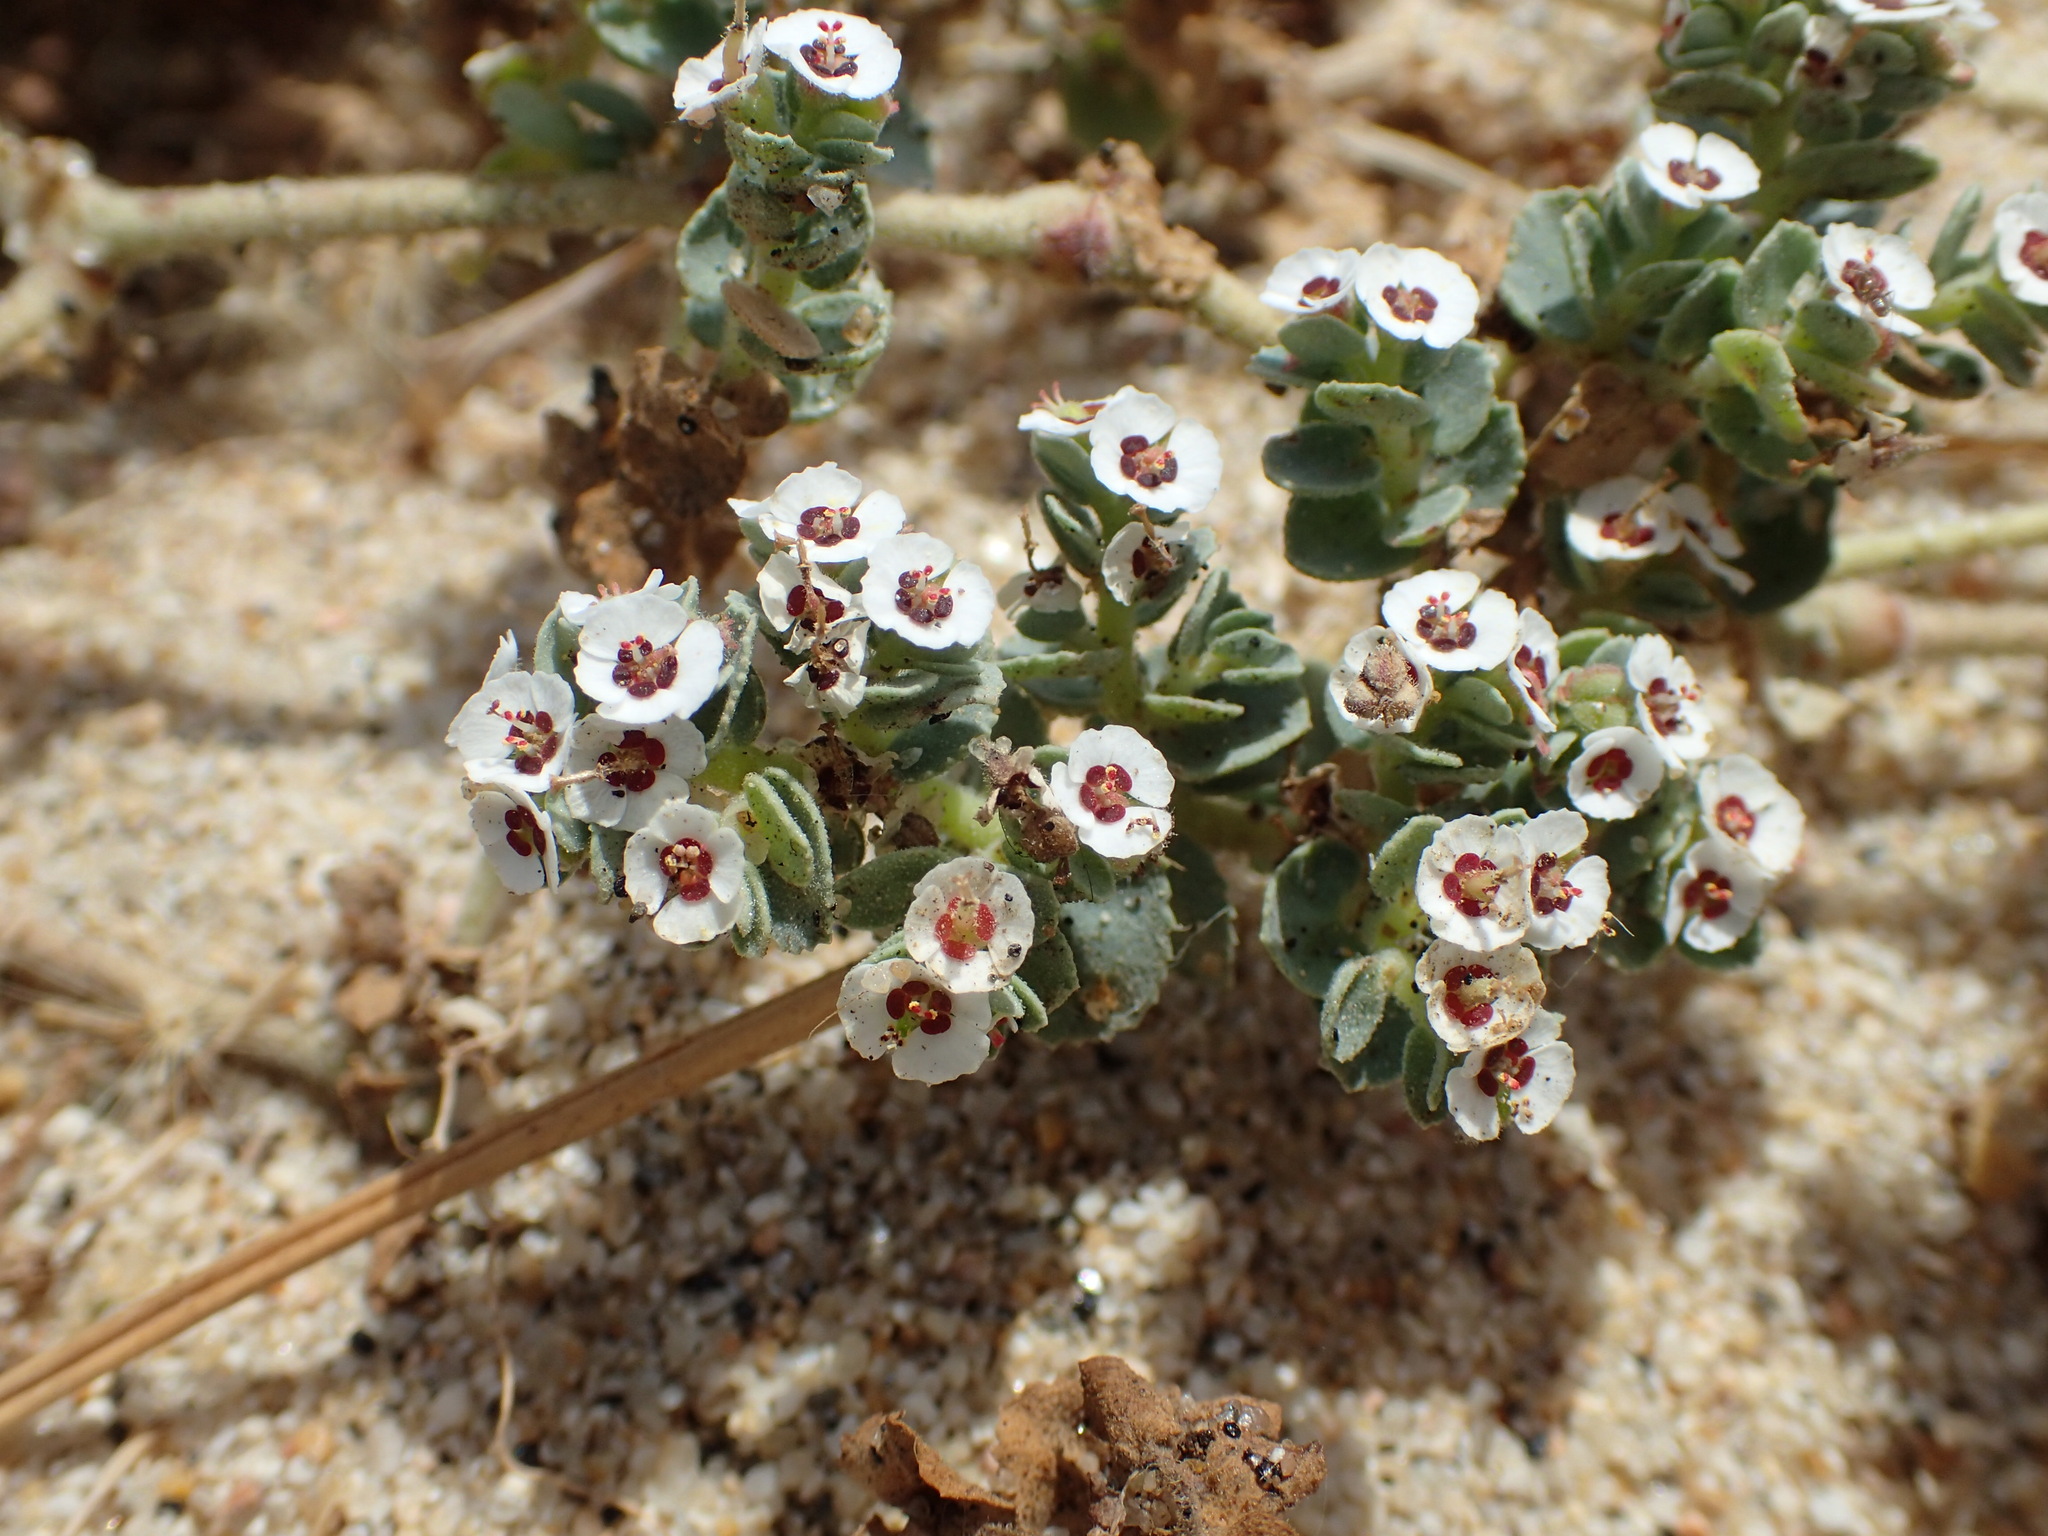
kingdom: Plantae
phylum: Tracheophyta
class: Magnoliopsida
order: Malpighiales
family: Euphorbiaceae
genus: Euphorbia
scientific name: Euphorbia leucophylla
